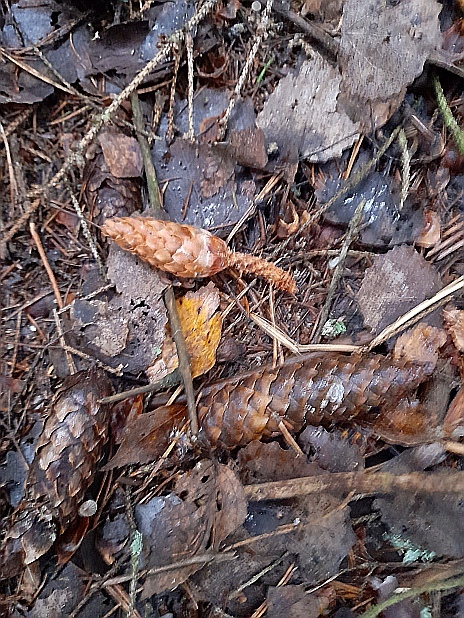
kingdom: Plantae
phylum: Tracheophyta
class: Pinopsida
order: Pinales
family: Pinaceae
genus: Picea
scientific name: Picea abies
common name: Norway spruce
